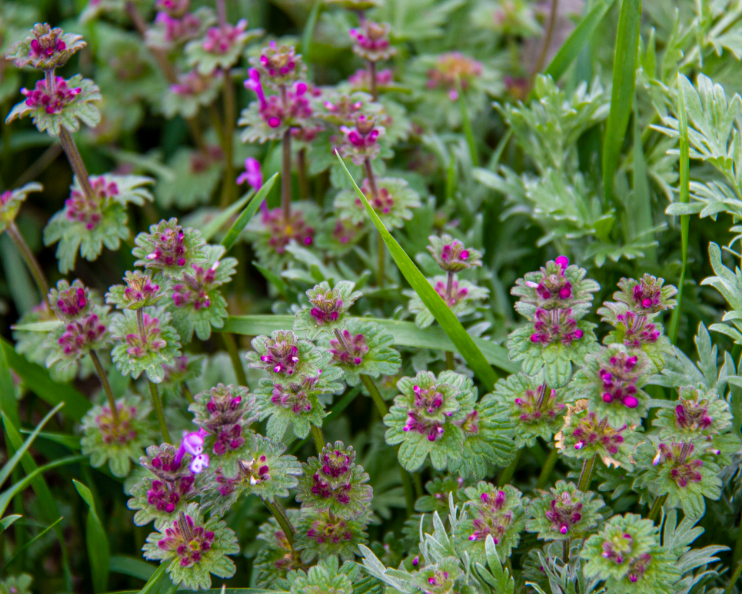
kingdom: Plantae
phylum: Tracheophyta
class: Magnoliopsida
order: Lamiales
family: Lamiaceae
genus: Lamium
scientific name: Lamium amplexicaule
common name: Henbit dead-nettle
